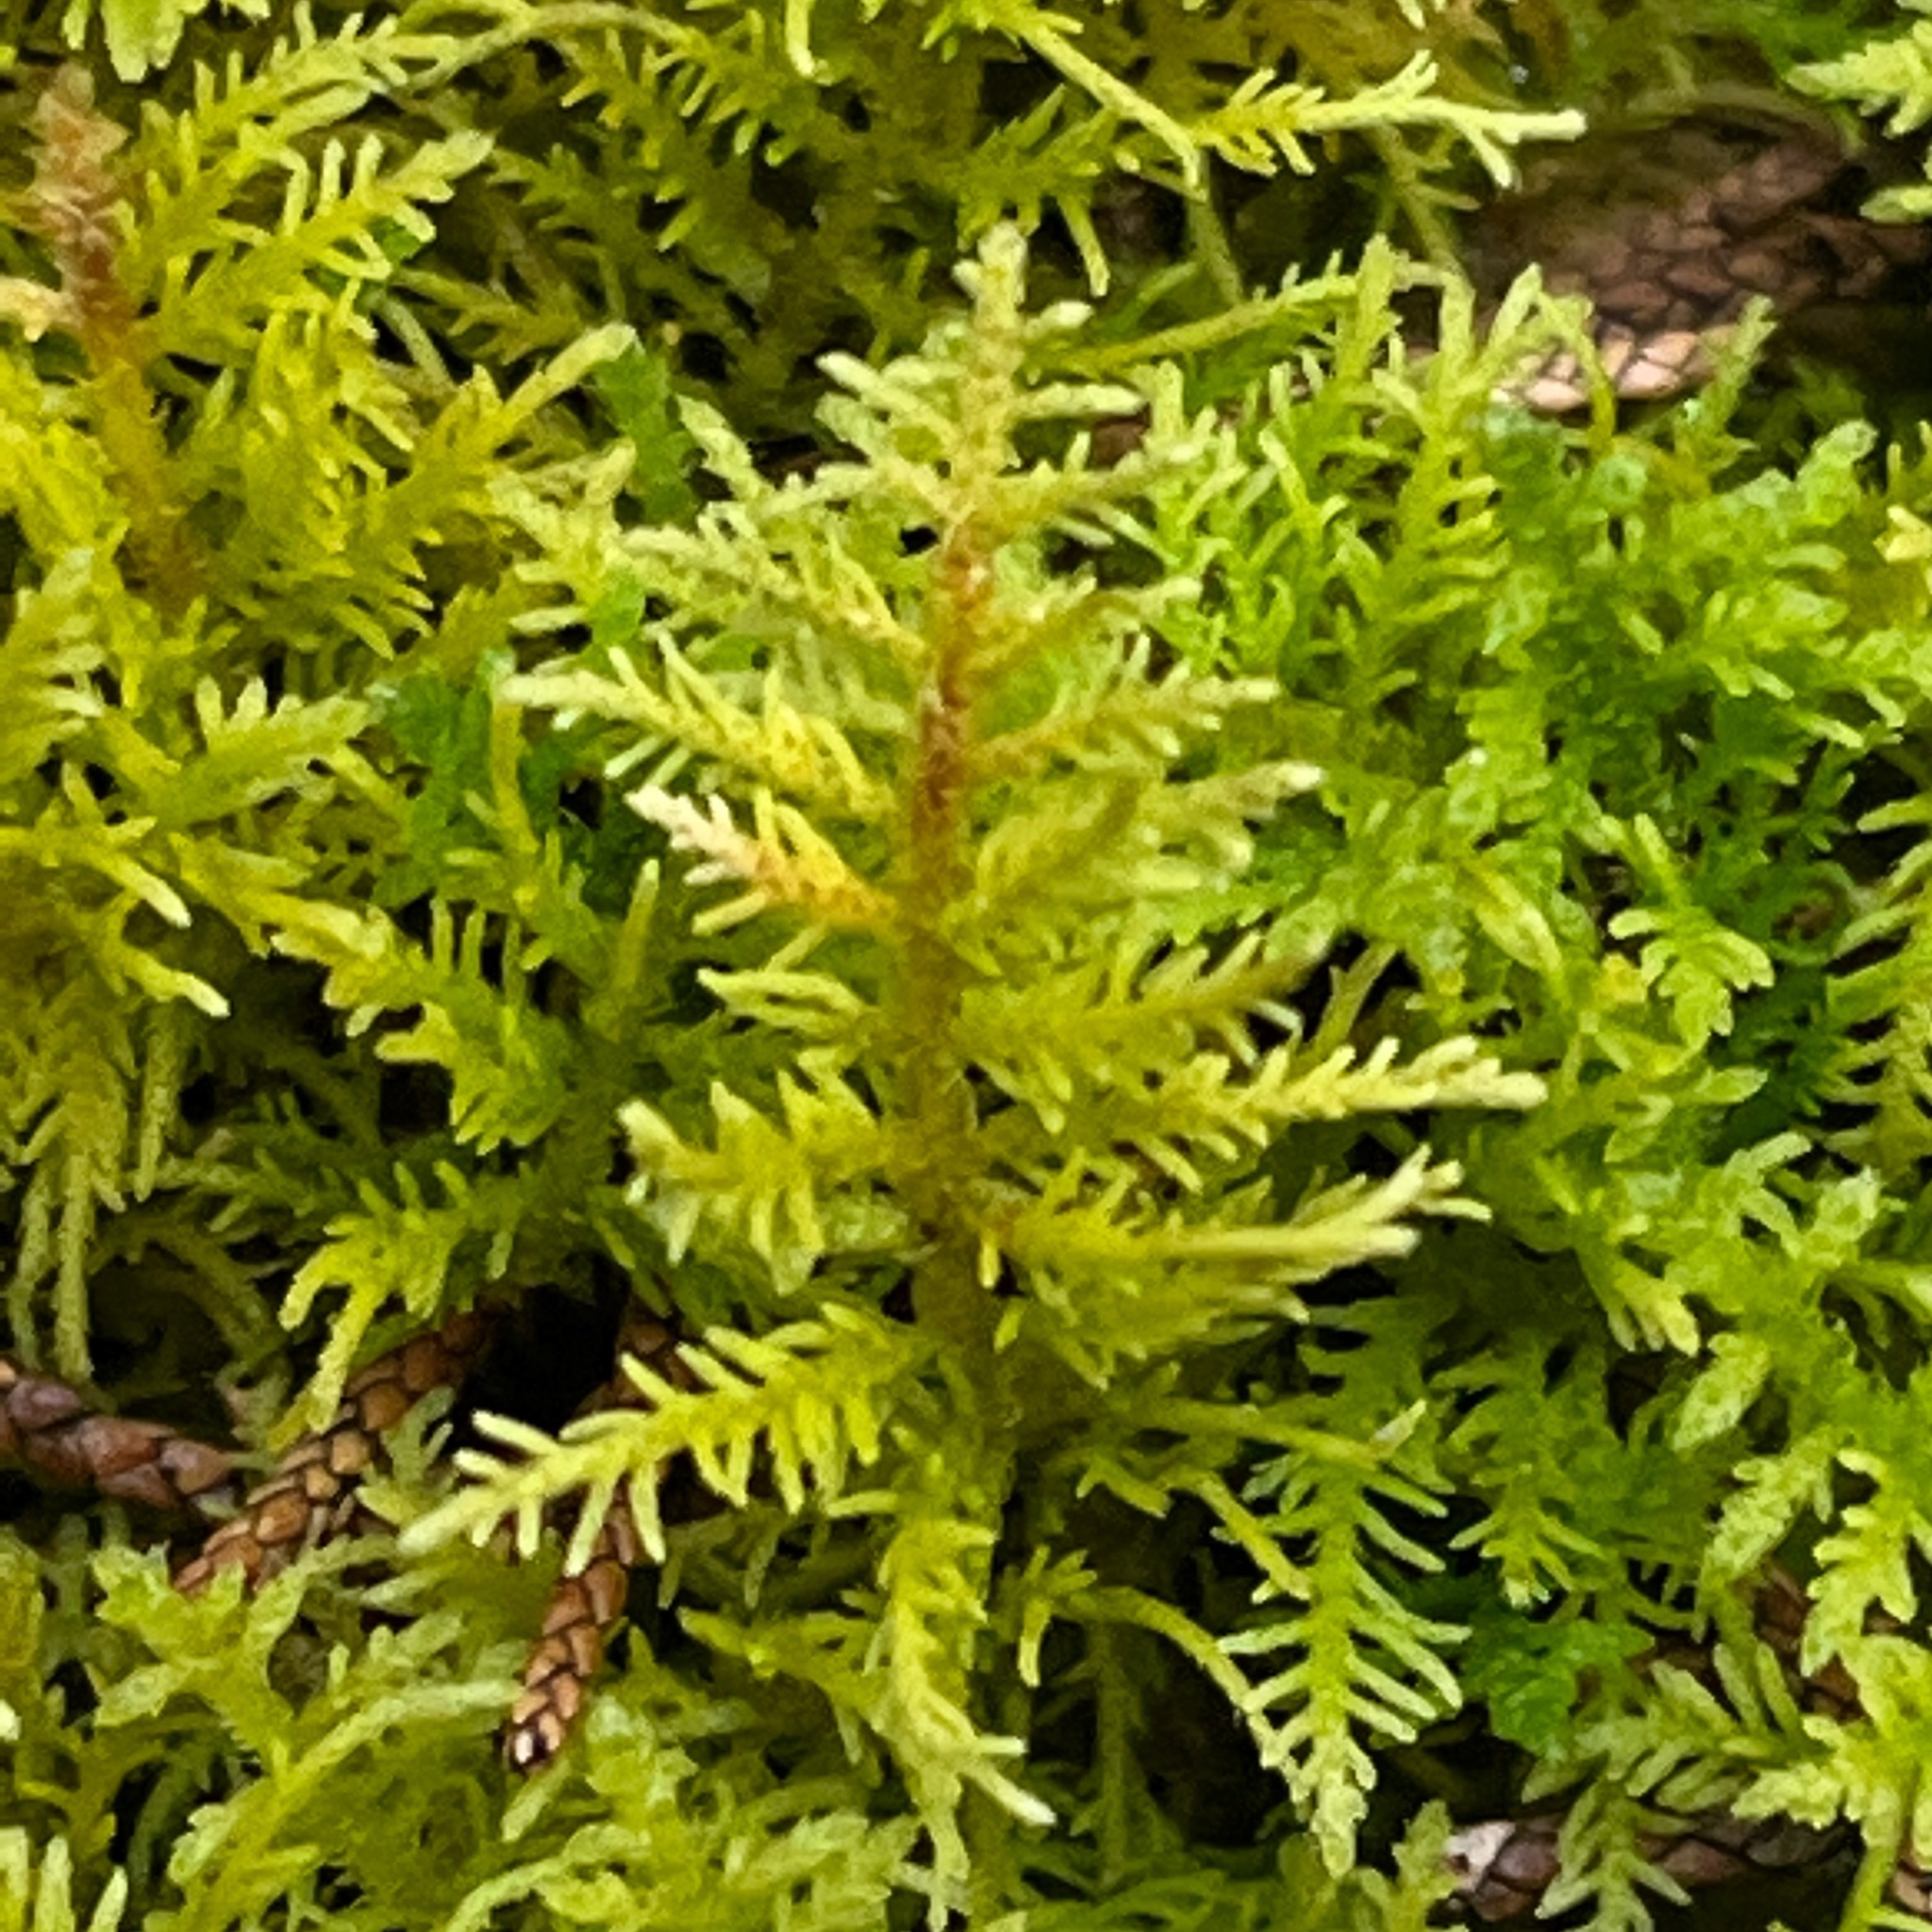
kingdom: Plantae
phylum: Bryophyta
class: Bryopsida
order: Hypnales
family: Thuidiaceae
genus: Thuidium
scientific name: Thuidium delicatulum
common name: Delicate fern moss
